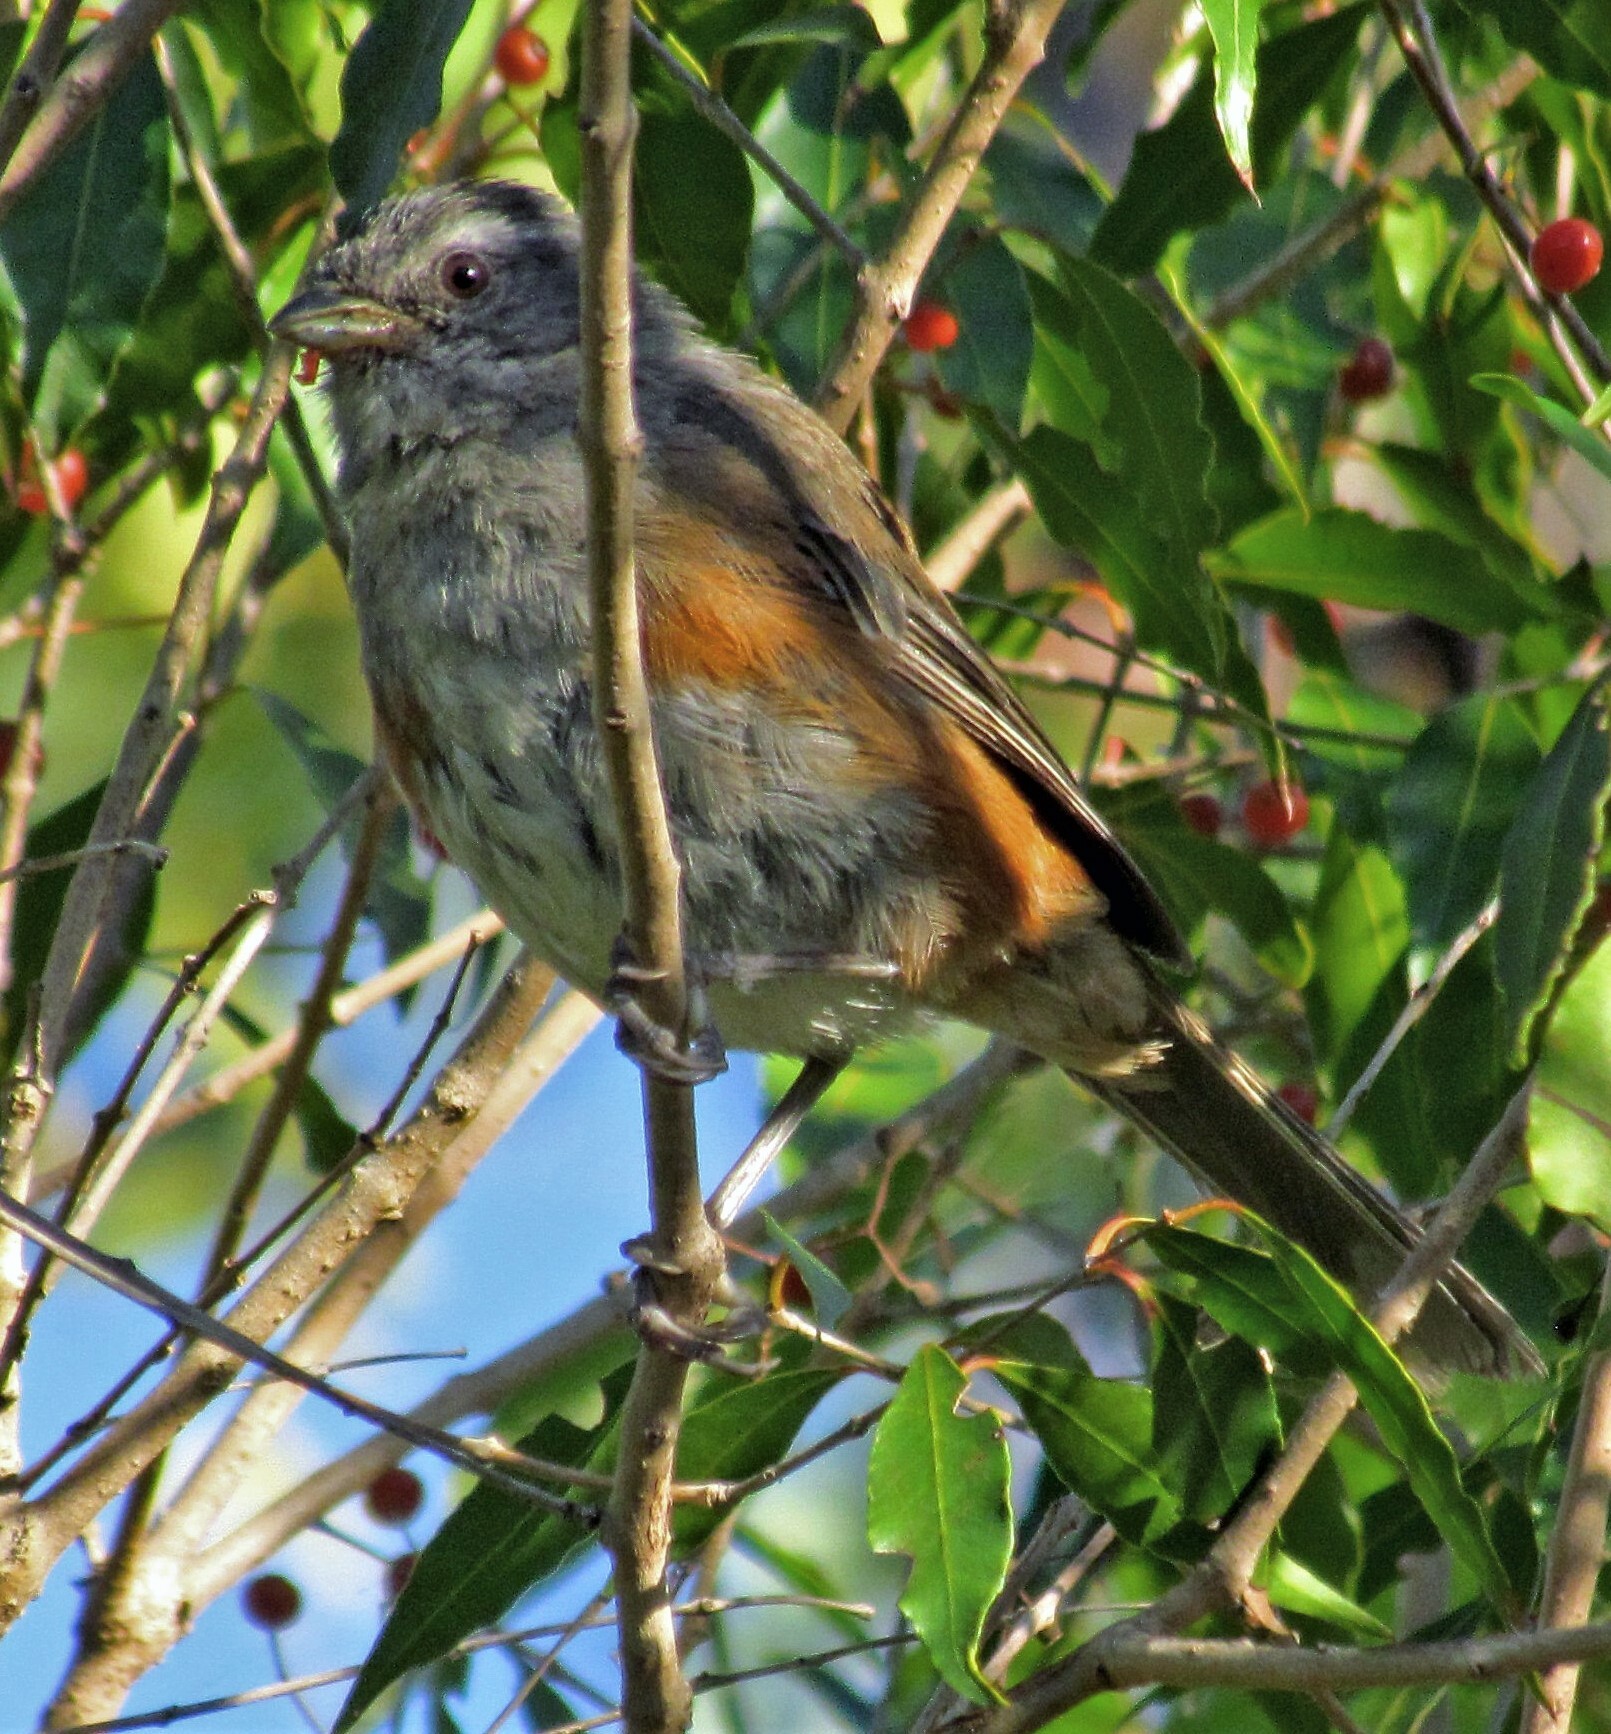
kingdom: Animalia
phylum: Chordata
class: Aves
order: Passeriformes
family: Thraupidae
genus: Microspingus
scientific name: Microspingus cabanisi
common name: Gray-throated warbling-finch
